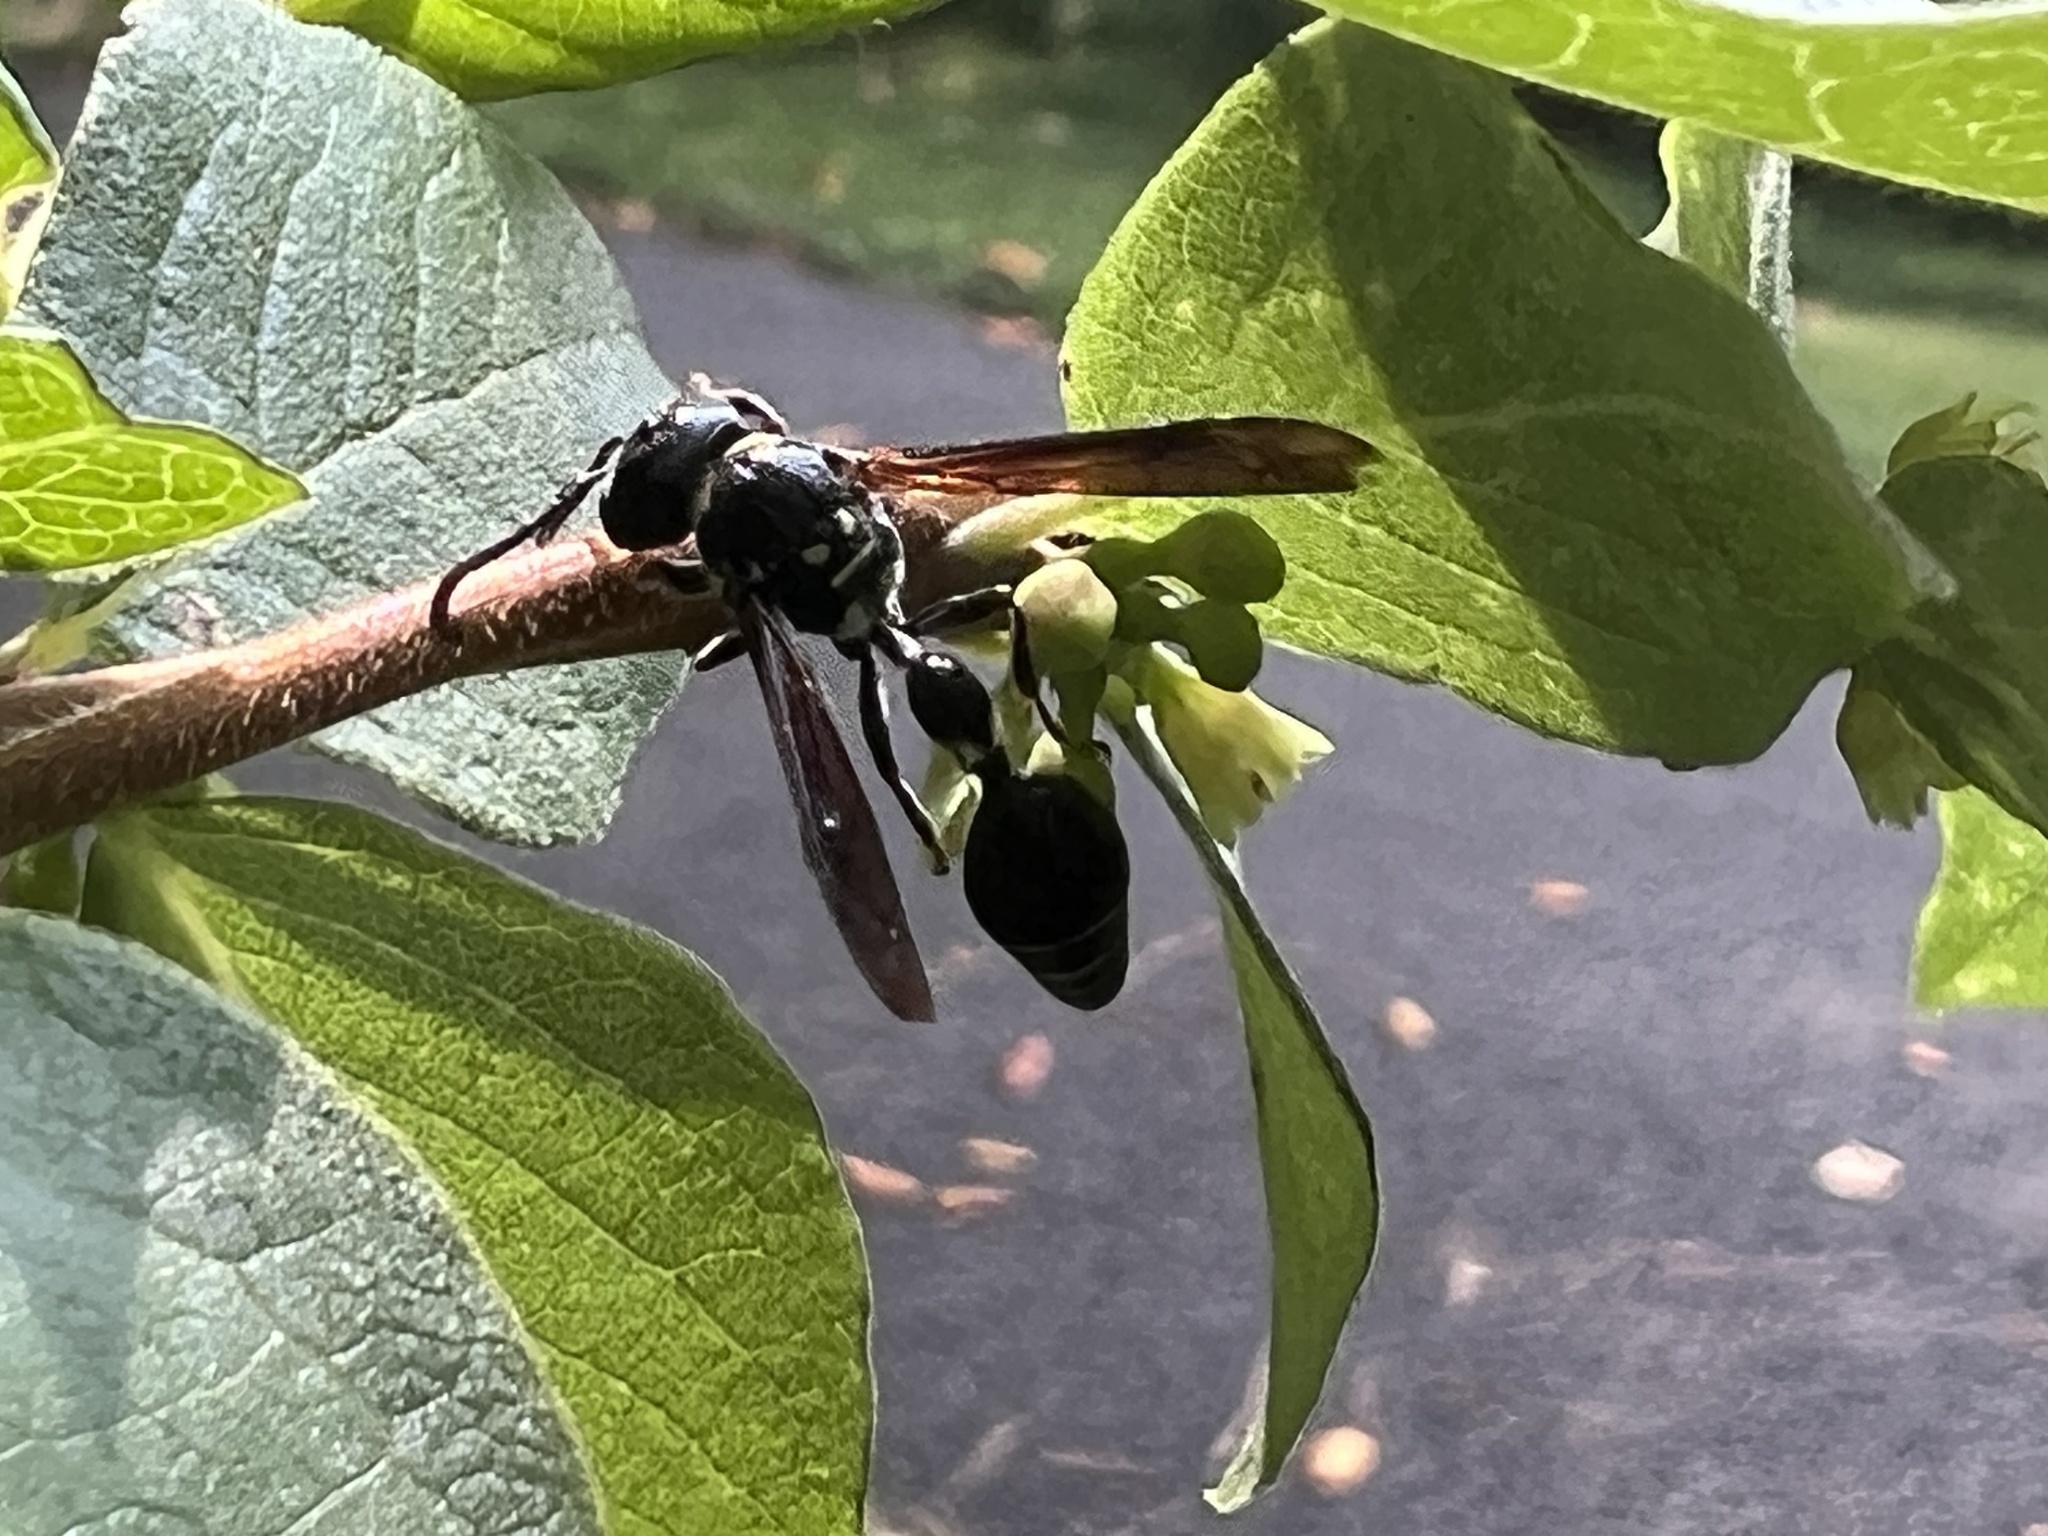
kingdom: Animalia
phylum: Arthropoda
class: Insecta
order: Hymenoptera
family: Eumenidae
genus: Zethus
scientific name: Zethus spinipes
